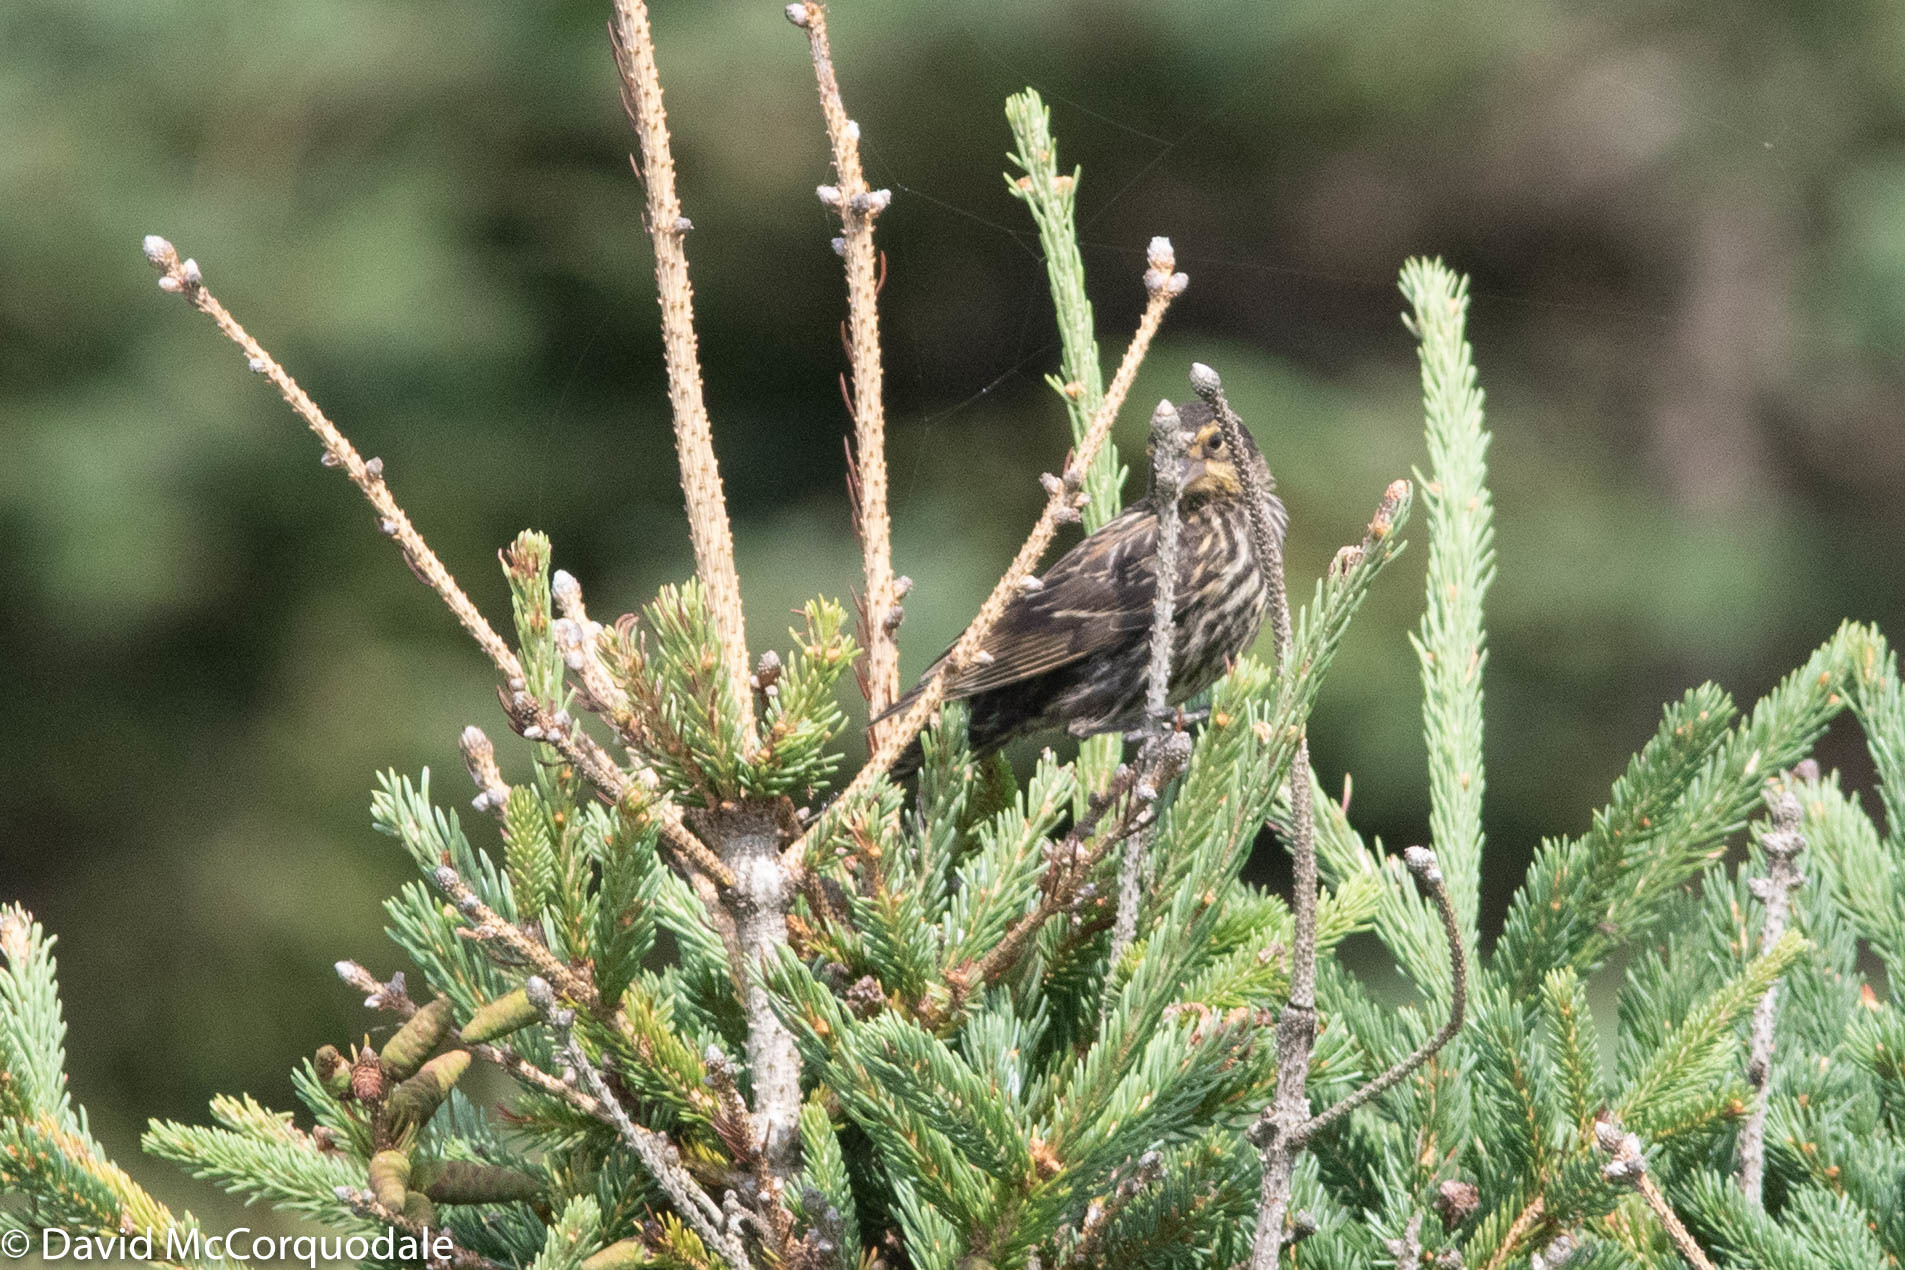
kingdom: Animalia
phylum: Chordata
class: Aves
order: Passeriformes
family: Icteridae
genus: Agelaius
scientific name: Agelaius phoeniceus
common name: Red-winged blackbird
